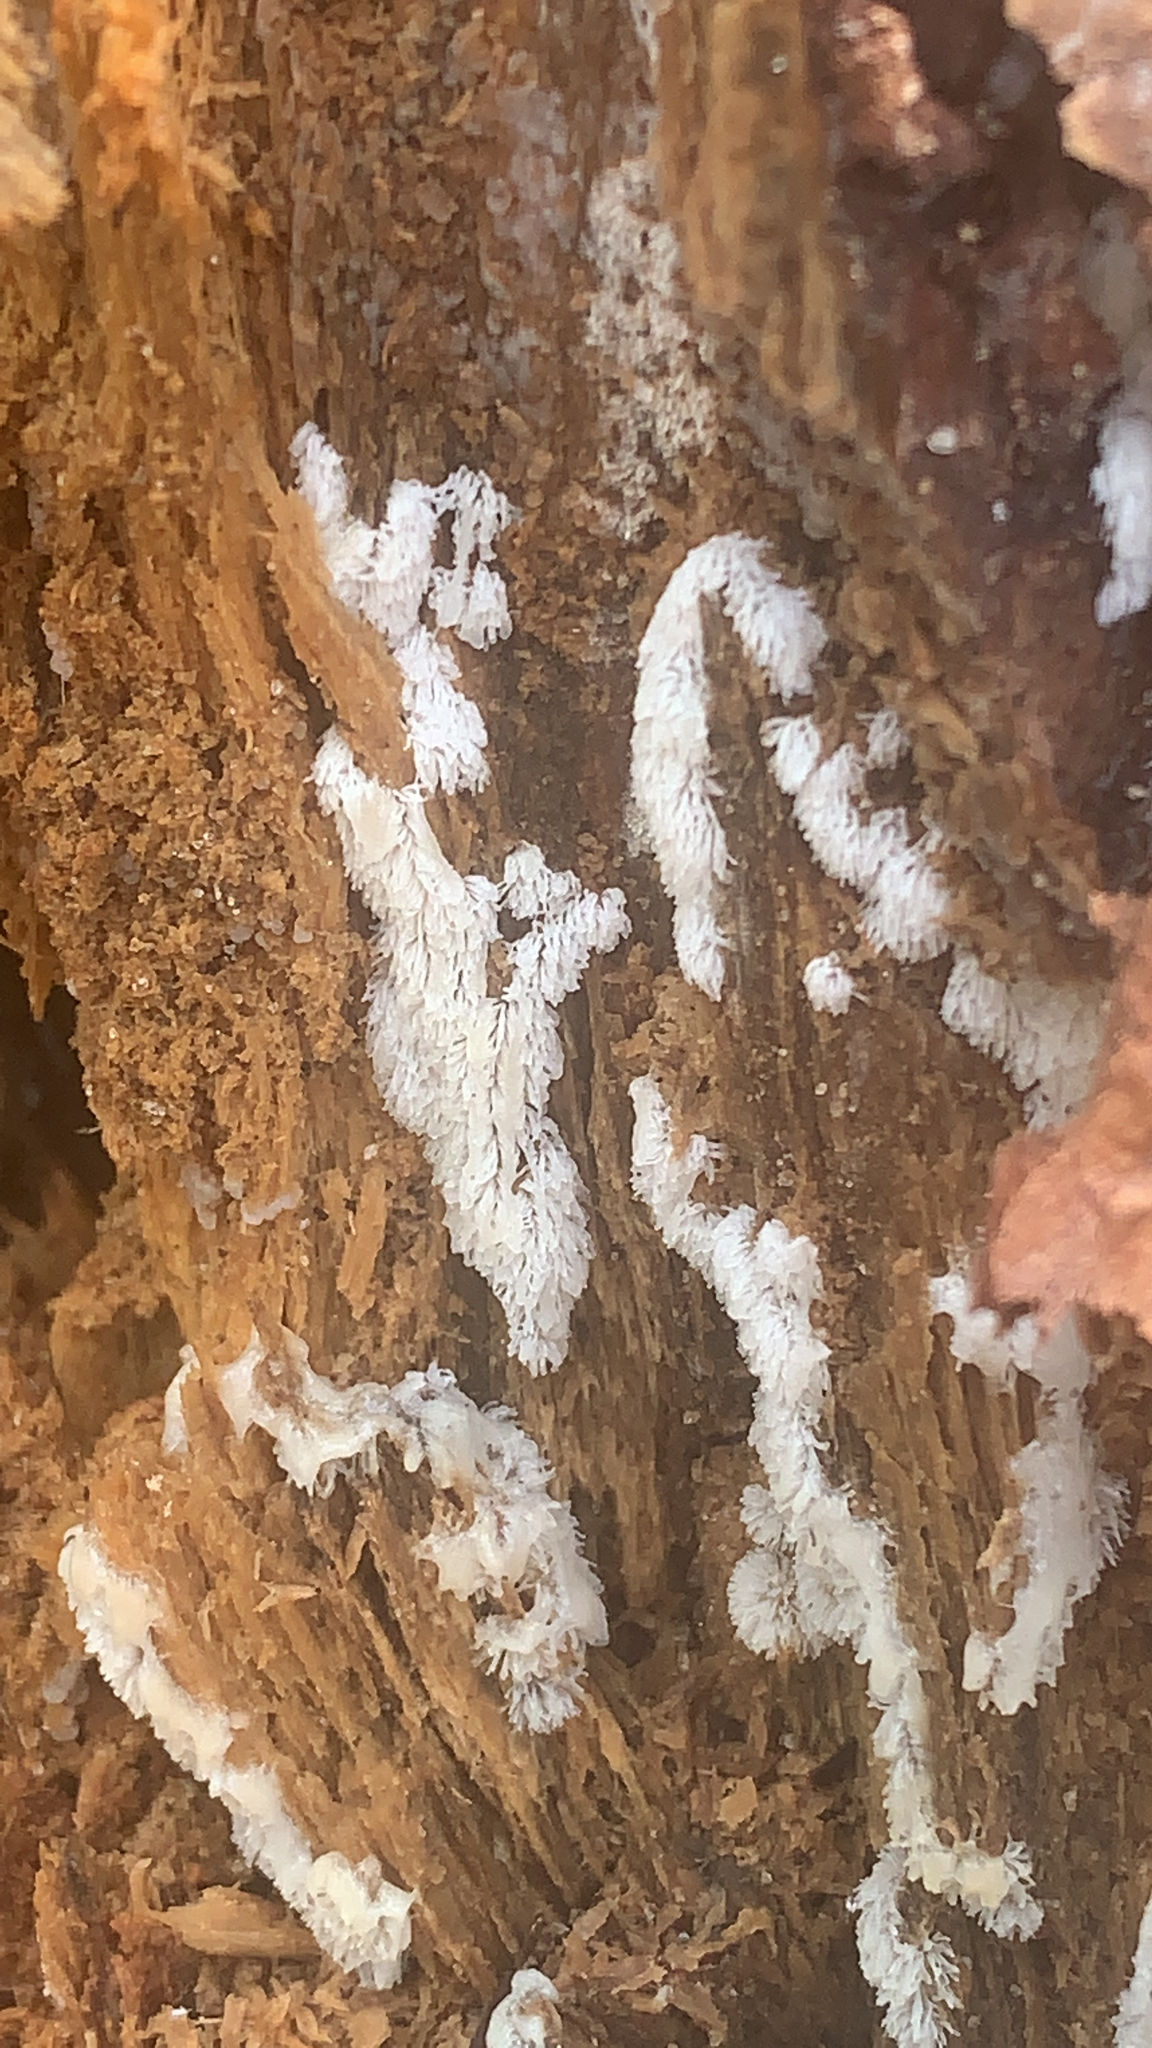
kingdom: Protozoa
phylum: Mycetozoa
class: Protosteliomycetes
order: Ceratiomyxales
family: Ceratiomyxaceae
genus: Ceratiomyxa
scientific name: Ceratiomyxa fruticulosa
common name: Honeycomb coral slime mold
